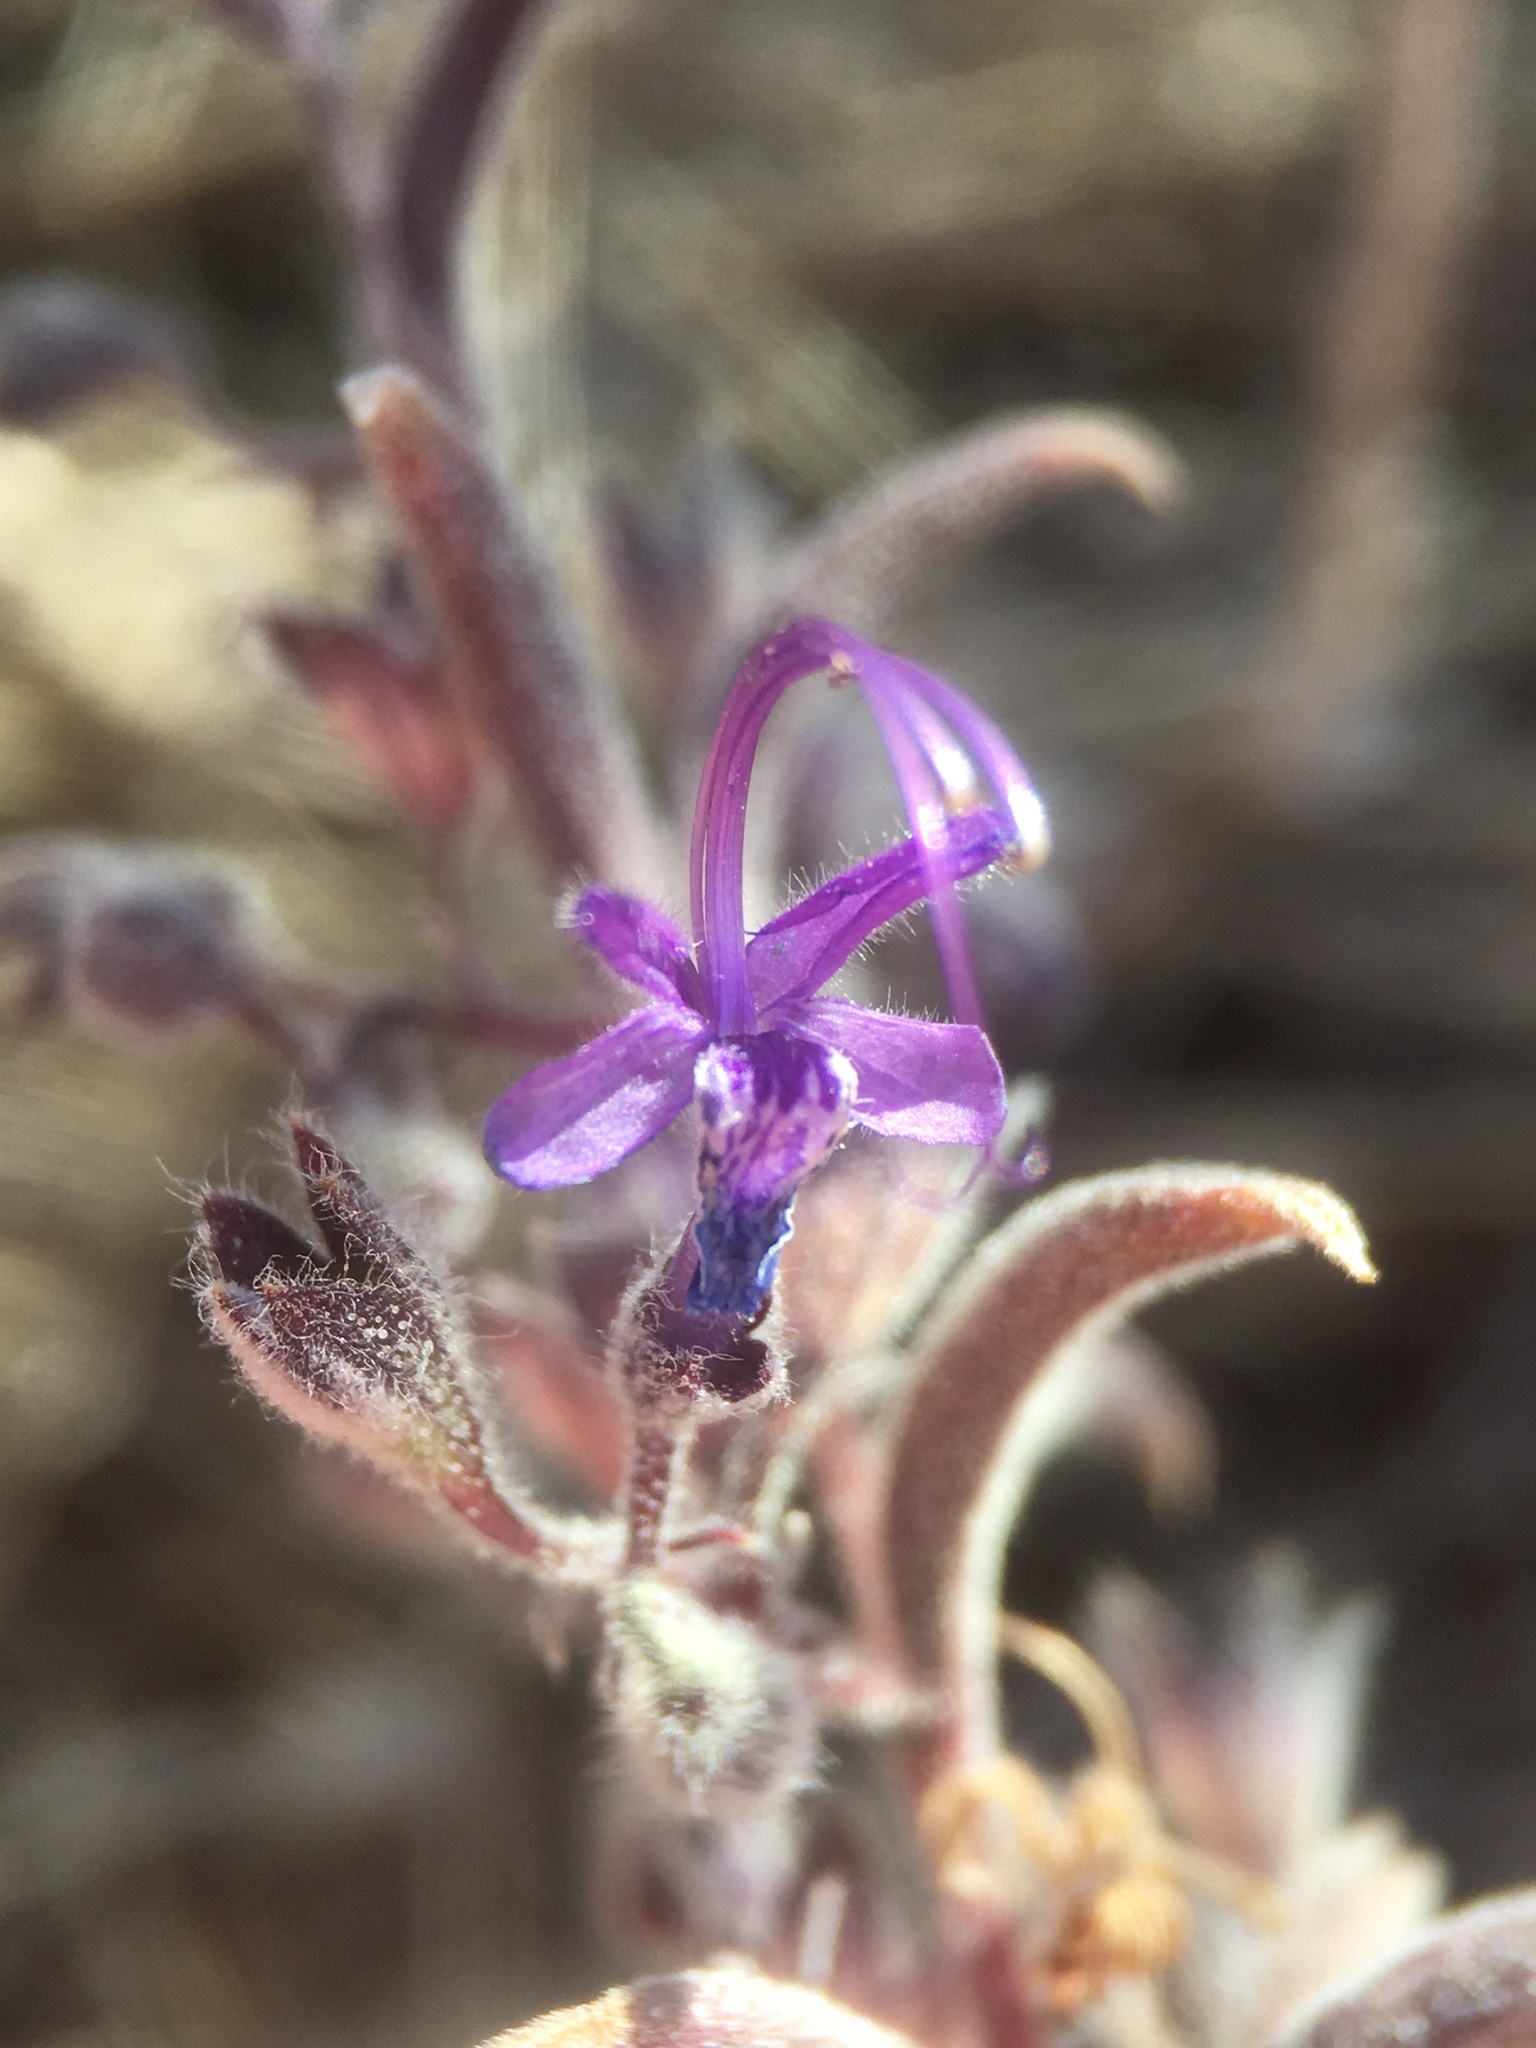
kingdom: Plantae
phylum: Tracheophyta
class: Magnoliopsida
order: Lamiales
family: Lamiaceae
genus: Trichostema
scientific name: Trichostema lanceolatum
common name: Vinegar-weed
